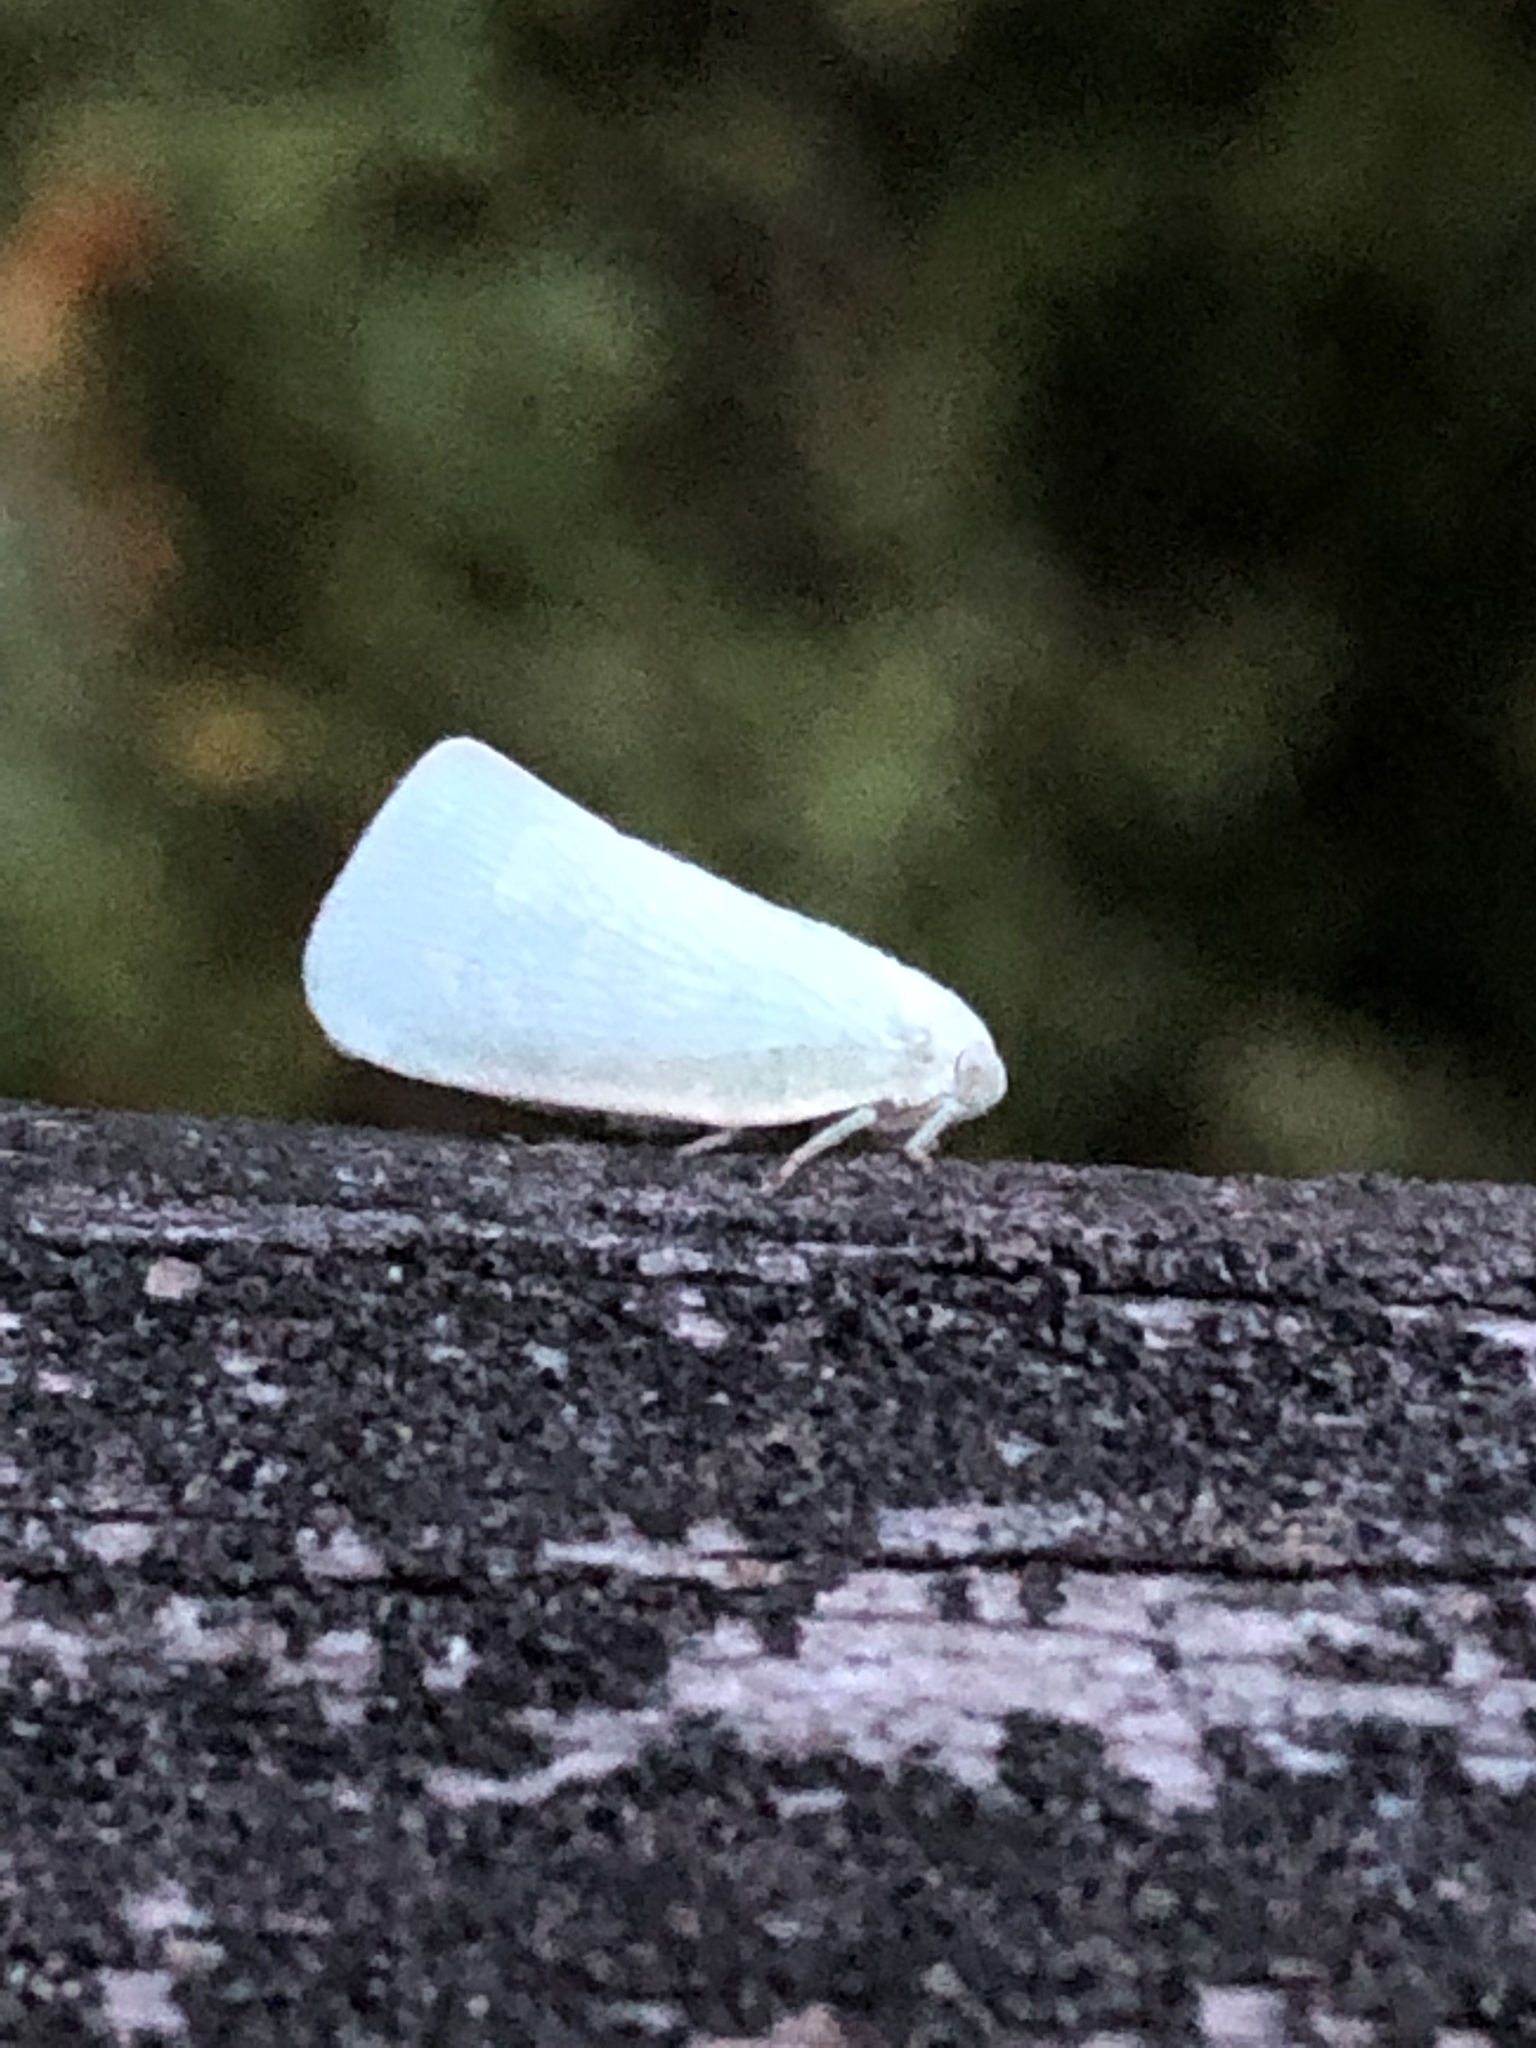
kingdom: Animalia
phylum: Arthropoda
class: Insecta
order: Hemiptera
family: Flatidae
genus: Flatormenis
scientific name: Flatormenis proxima
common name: Northern flatid planthopper
